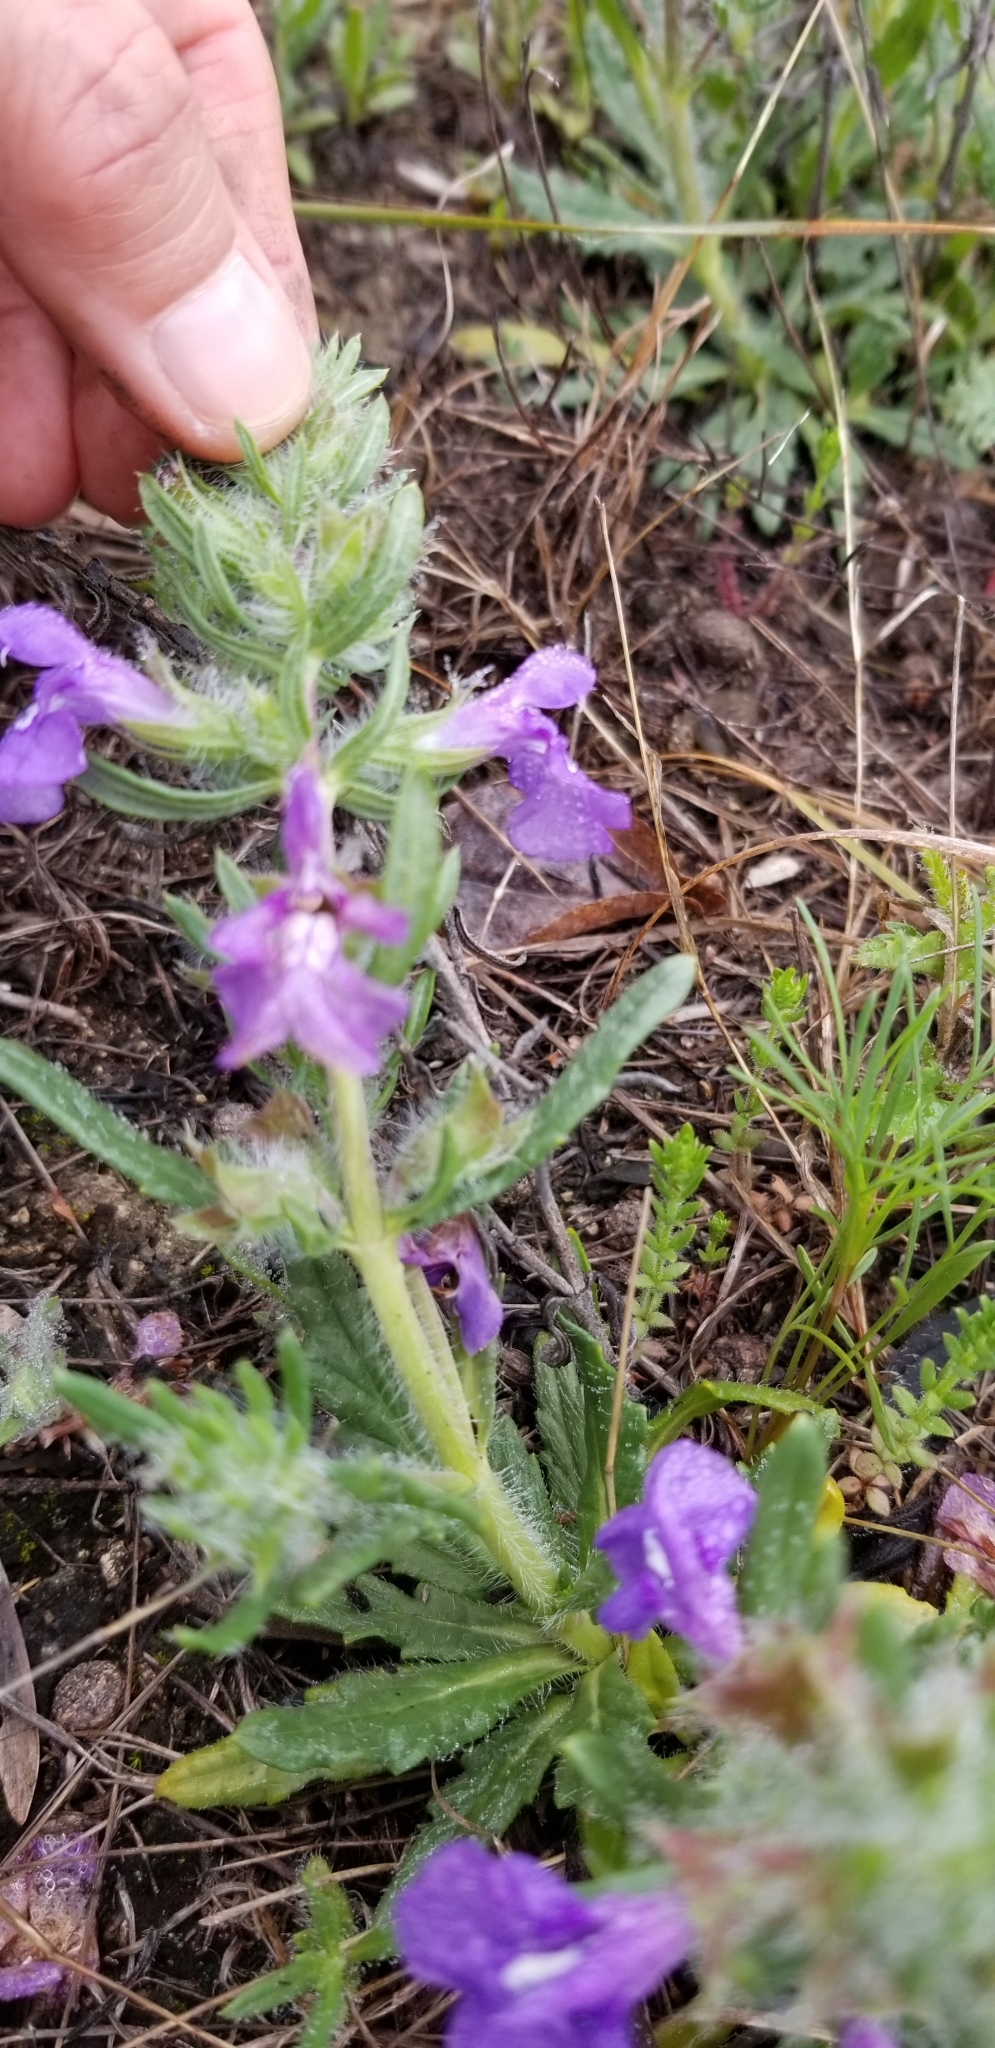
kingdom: Plantae
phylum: Tracheophyta
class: Magnoliopsida
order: Lamiales
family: Lamiaceae
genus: Salvia
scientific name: Salvia texana
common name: Texas sage
